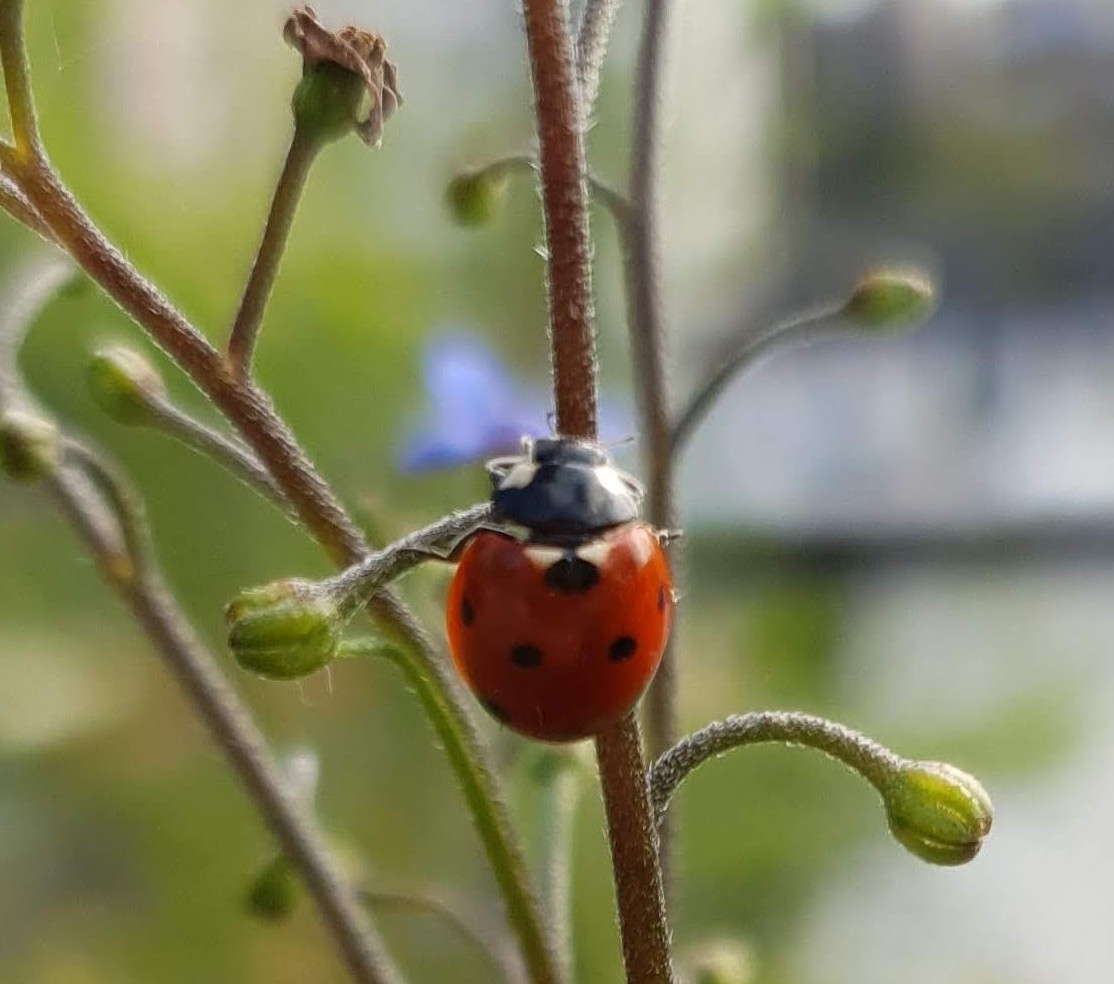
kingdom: Animalia
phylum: Arthropoda
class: Insecta
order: Coleoptera
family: Coccinellidae
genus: Coccinella
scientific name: Coccinella septempunctata
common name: Sevenspotted lady beetle
